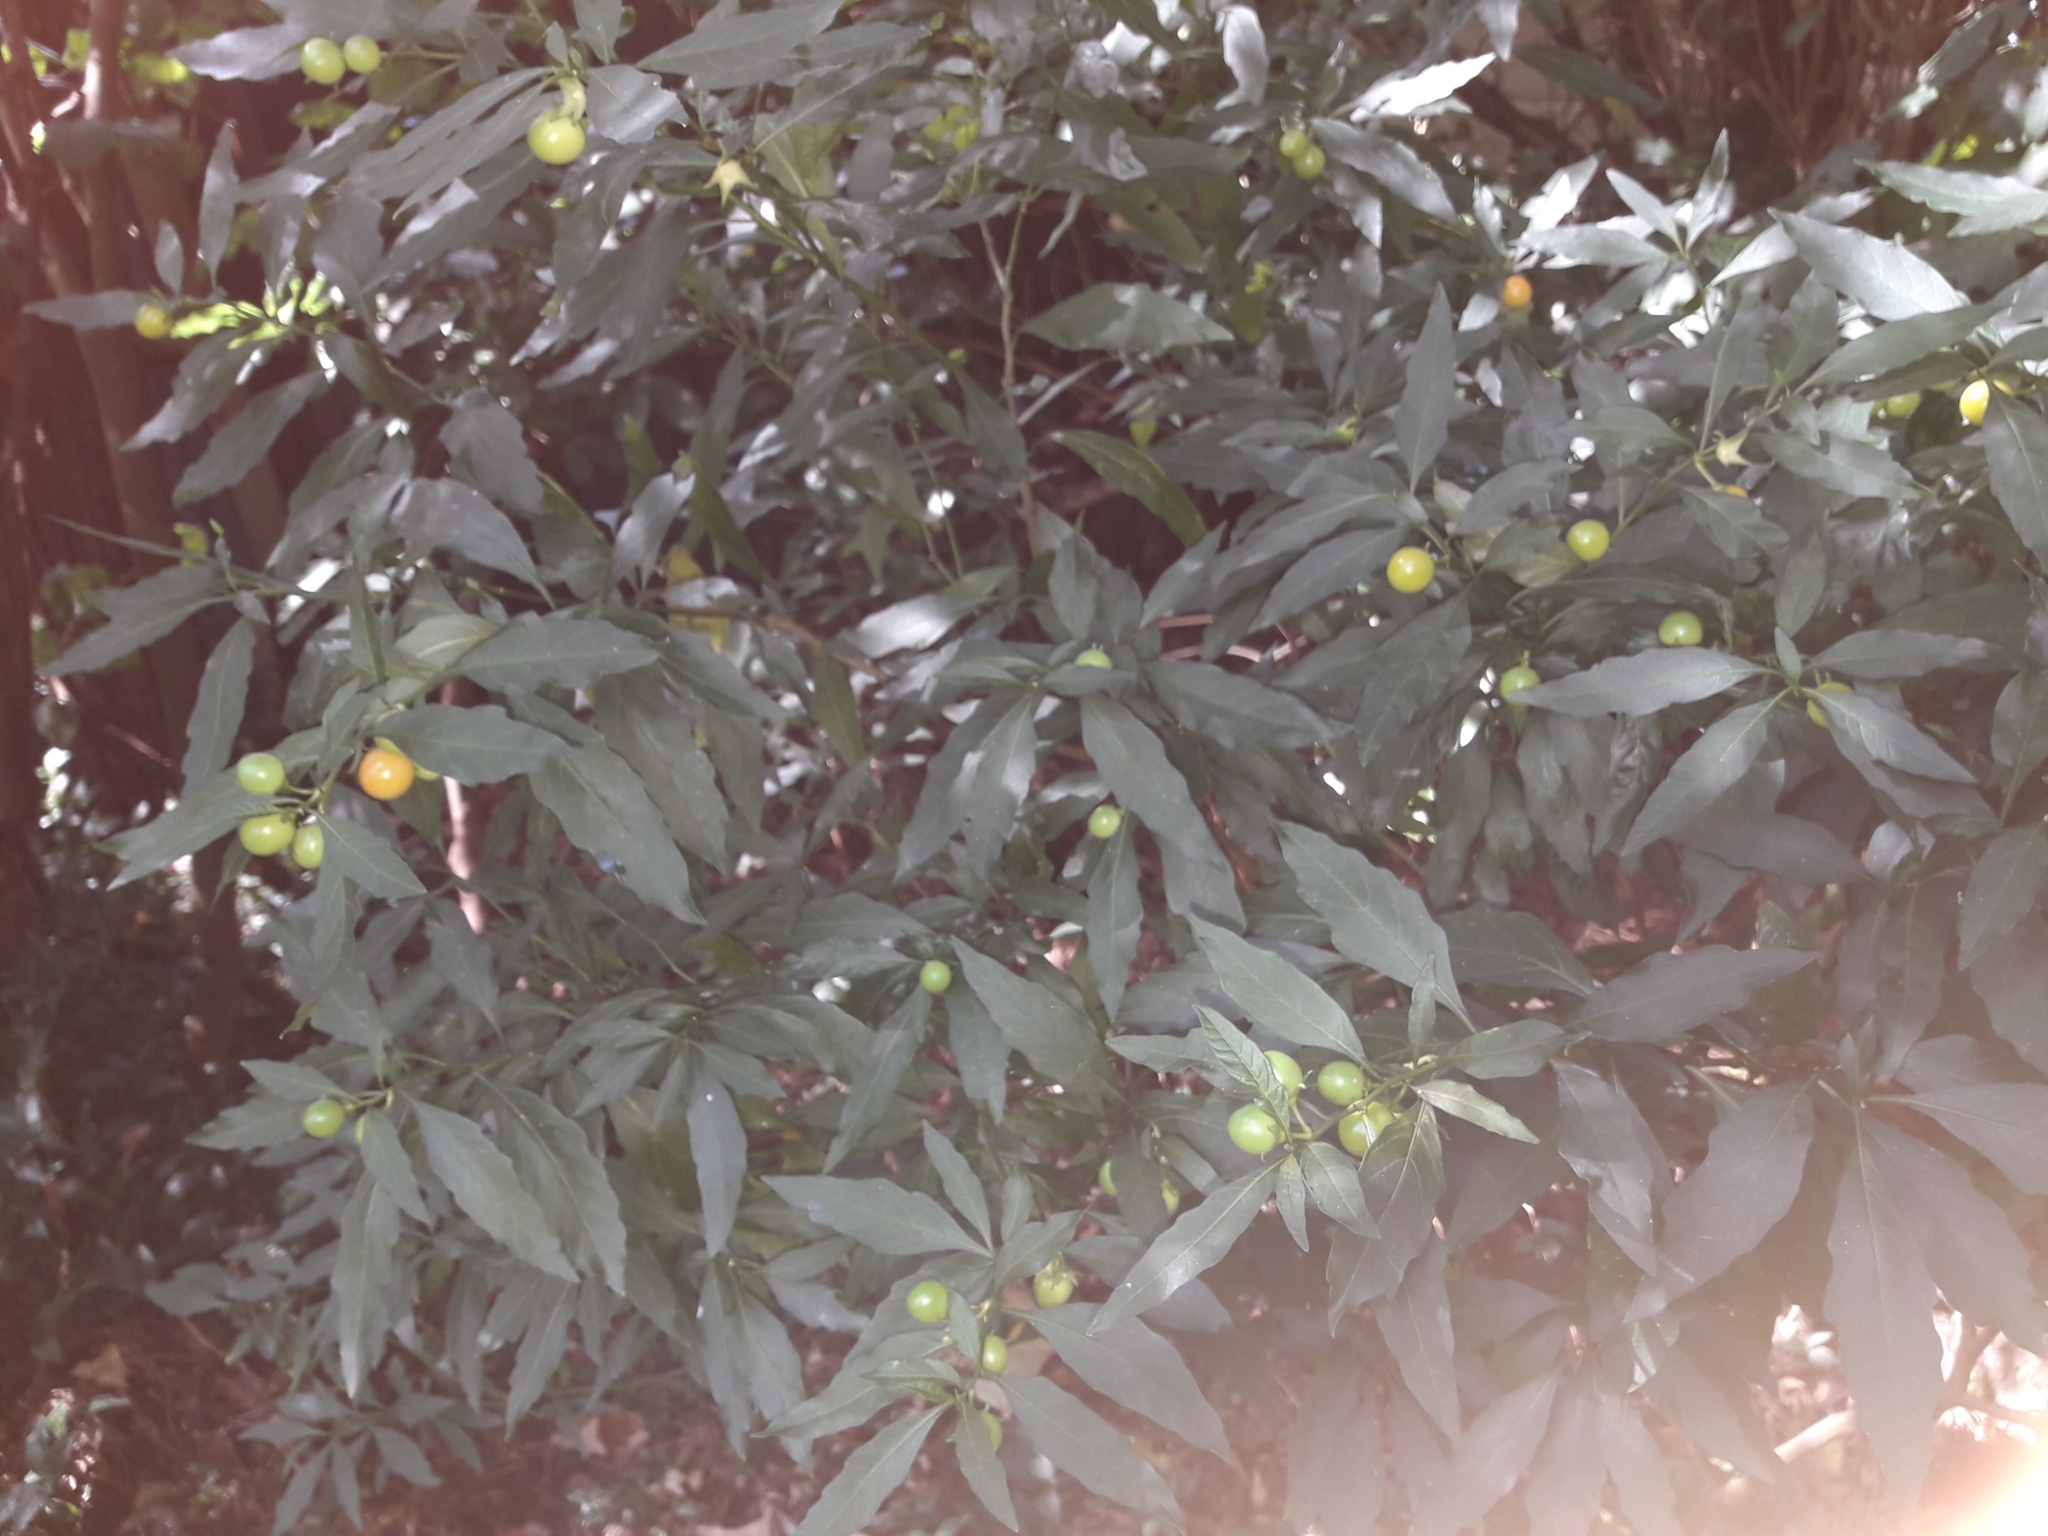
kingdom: Plantae
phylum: Tracheophyta
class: Magnoliopsida
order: Solanales
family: Solanaceae
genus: Solanum
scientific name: Solanum pseudocapsicum
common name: Jerusalem cherry
